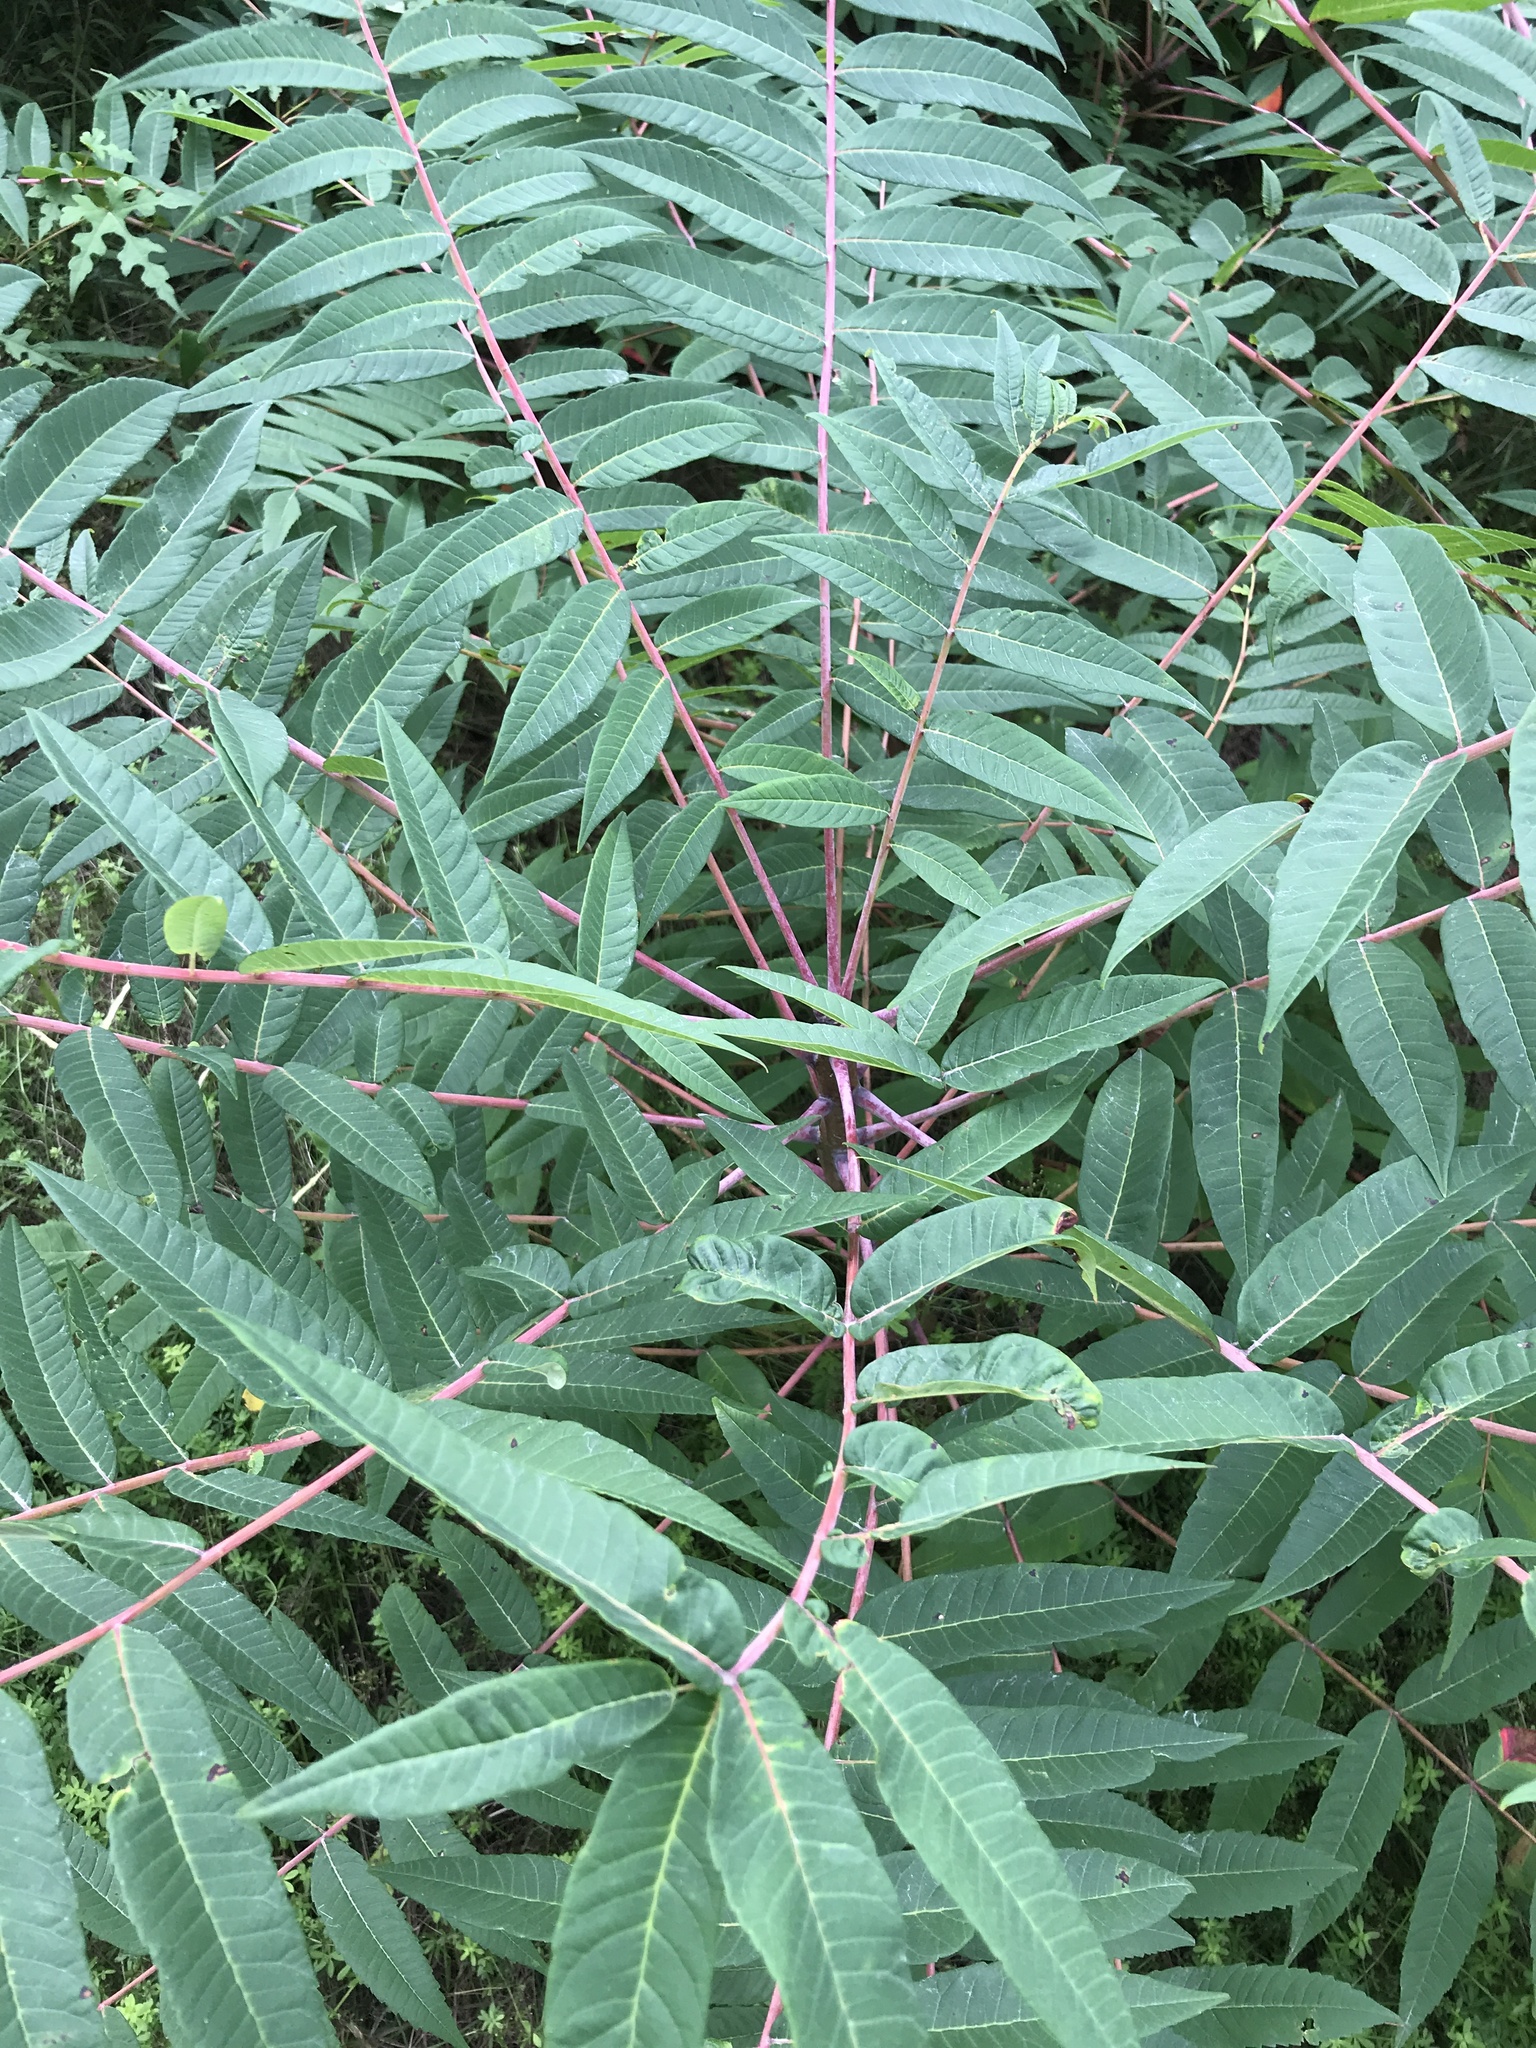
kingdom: Plantae
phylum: Tracheophyta
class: Magnoliopsida
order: Sapindales
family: Anacardiaceae
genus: Rhus
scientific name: Rhus glabra
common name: Scarlet sumac
